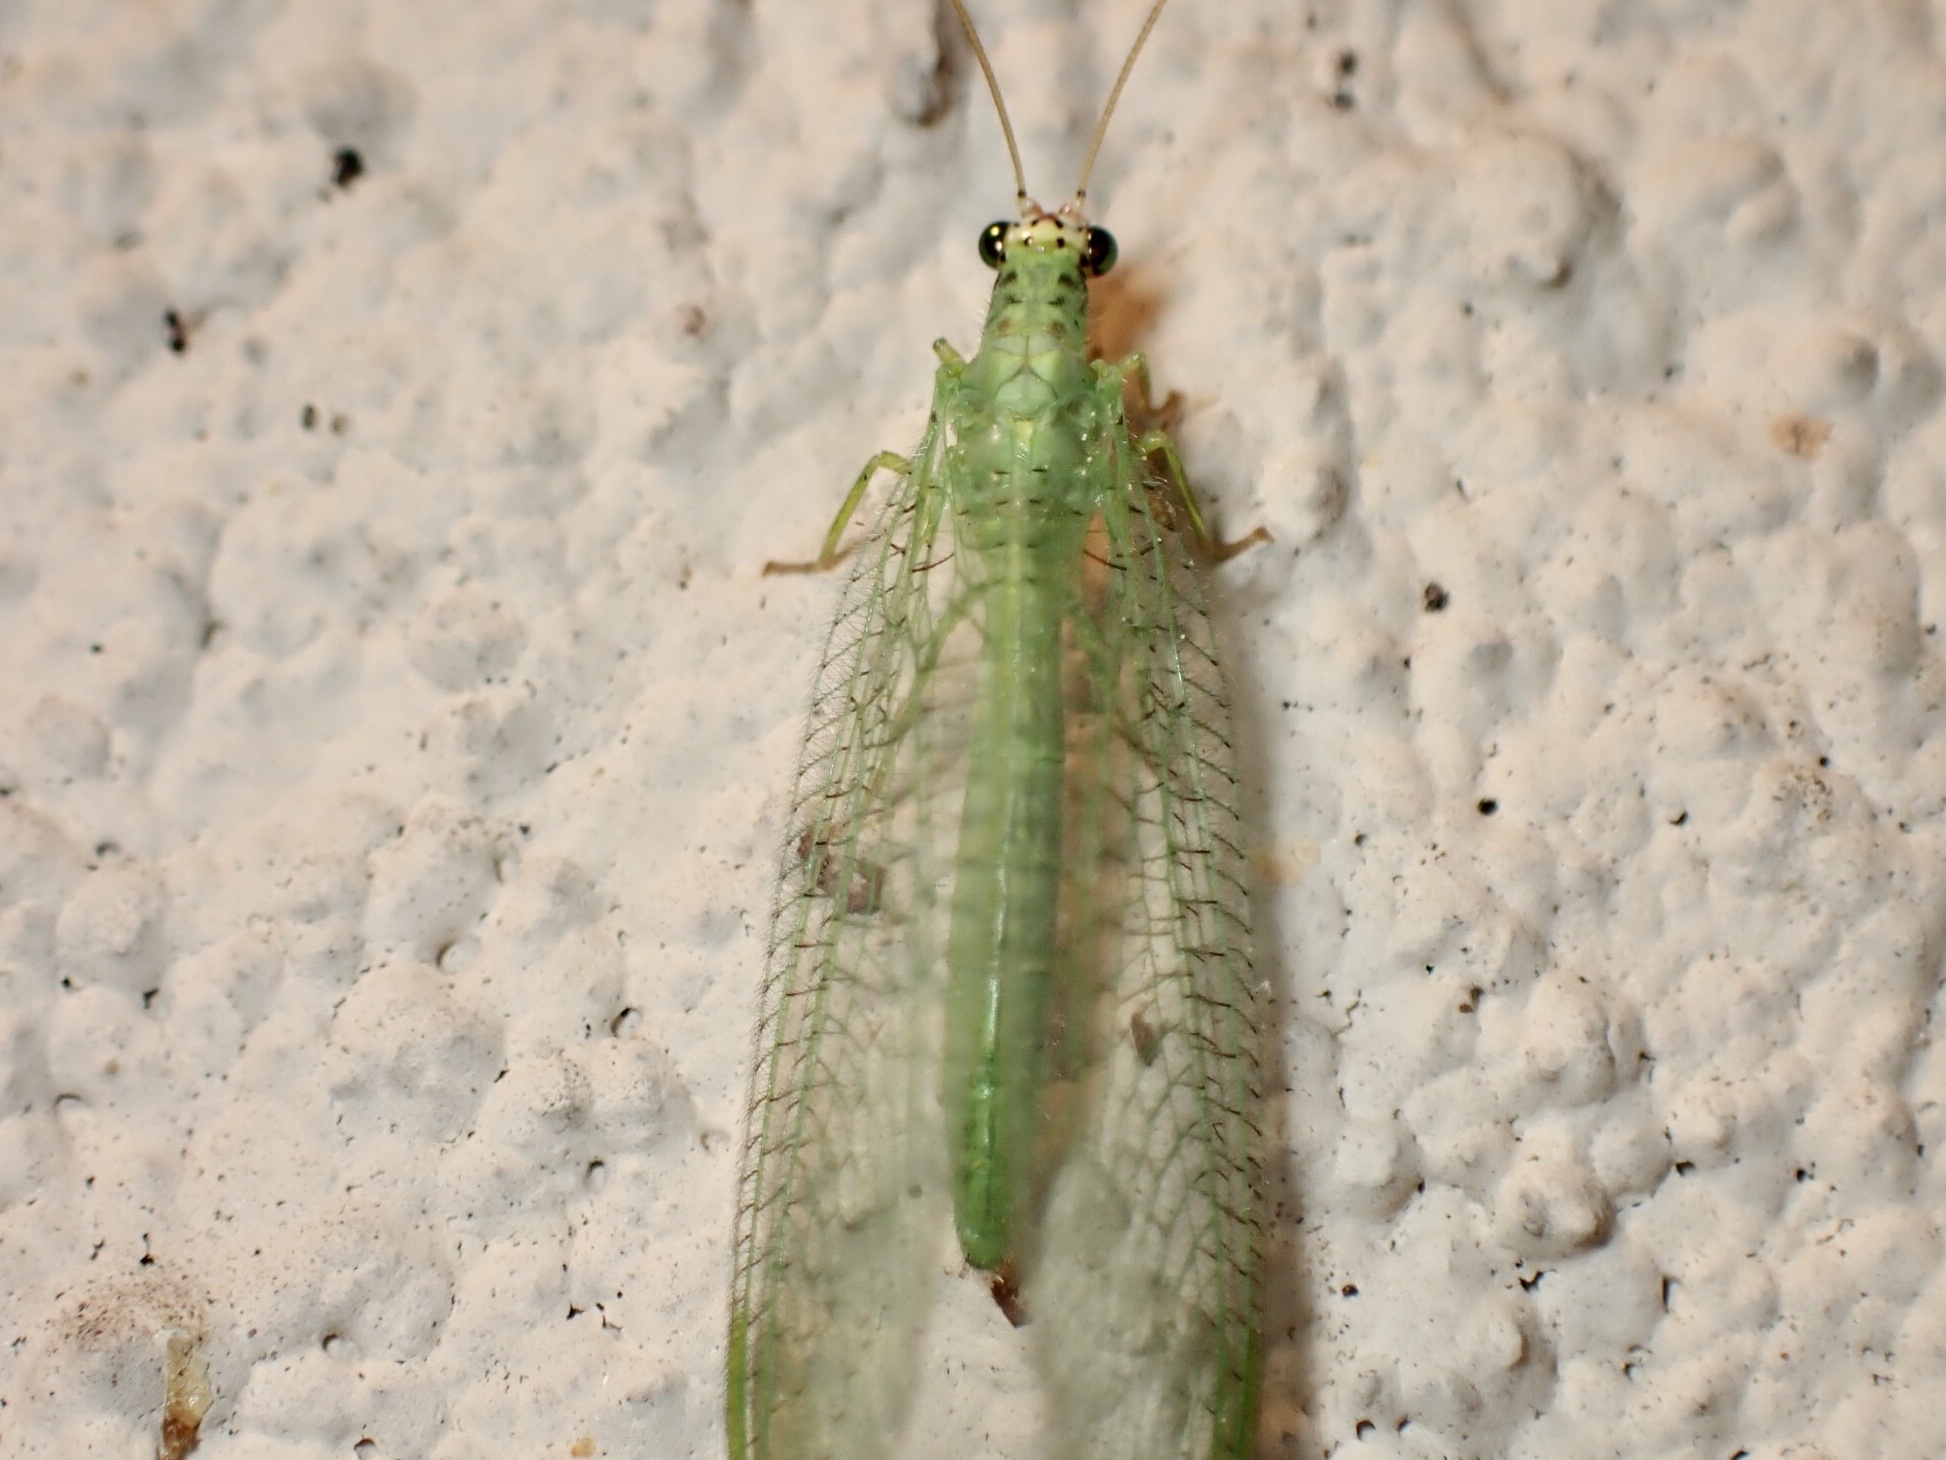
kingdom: Animalia
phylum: Arthropoda
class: Insecta
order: Neuroptera
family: Chrysopidae
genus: Chrysopa
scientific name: Chrysopa oculata
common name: Golden-eyed lacewing
